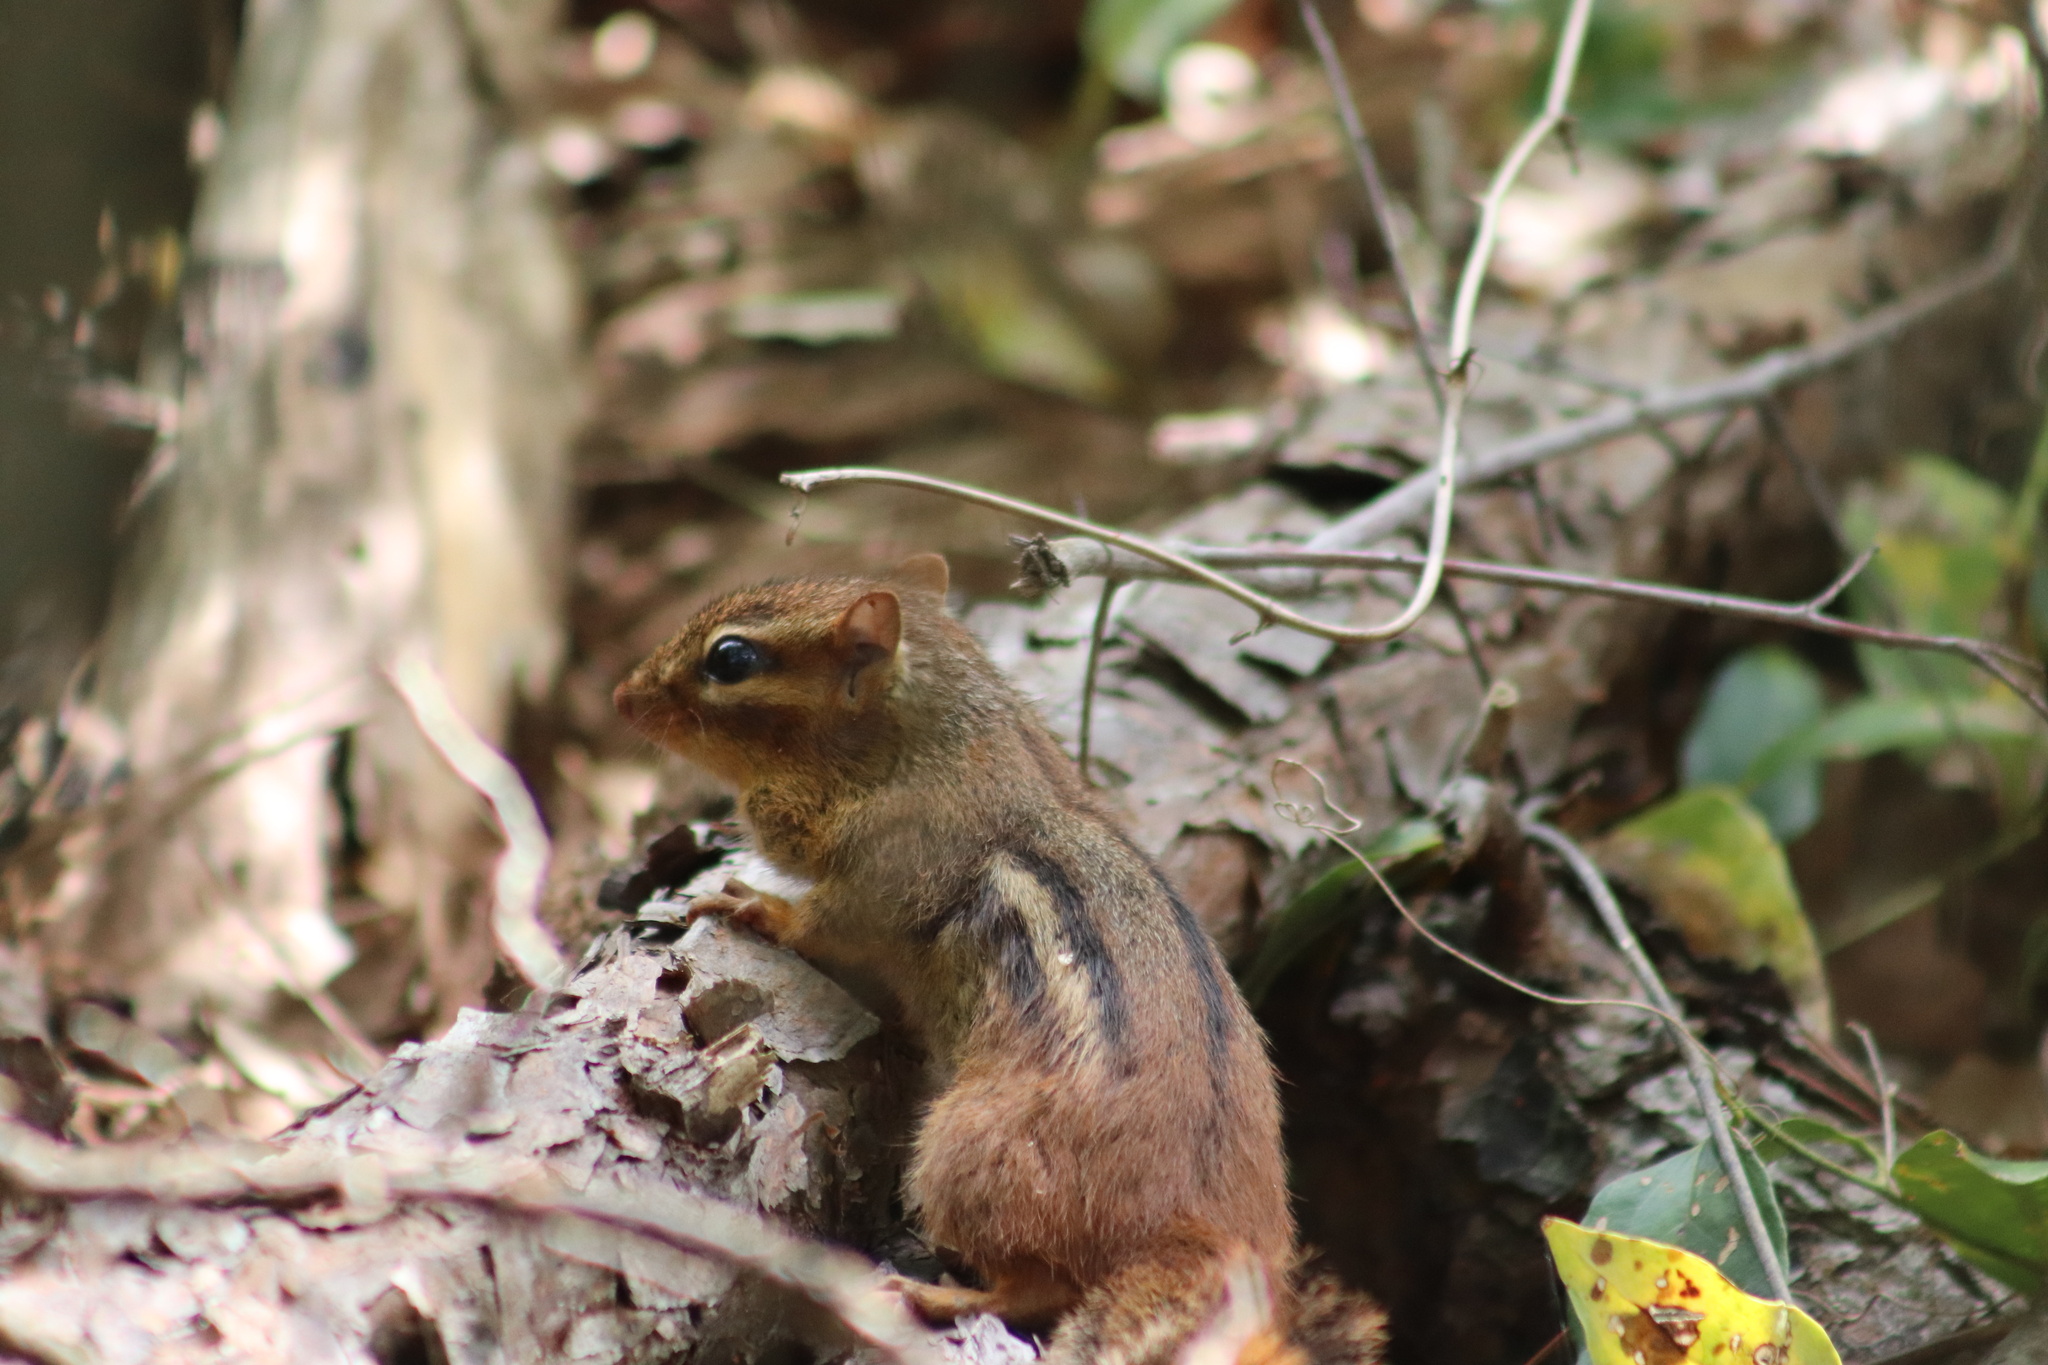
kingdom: Animalia
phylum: Chordata
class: Mammalia
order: Rodentia
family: Sciuridae
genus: Tamias
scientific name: Tamias striatus
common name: Eastern chipmunk
